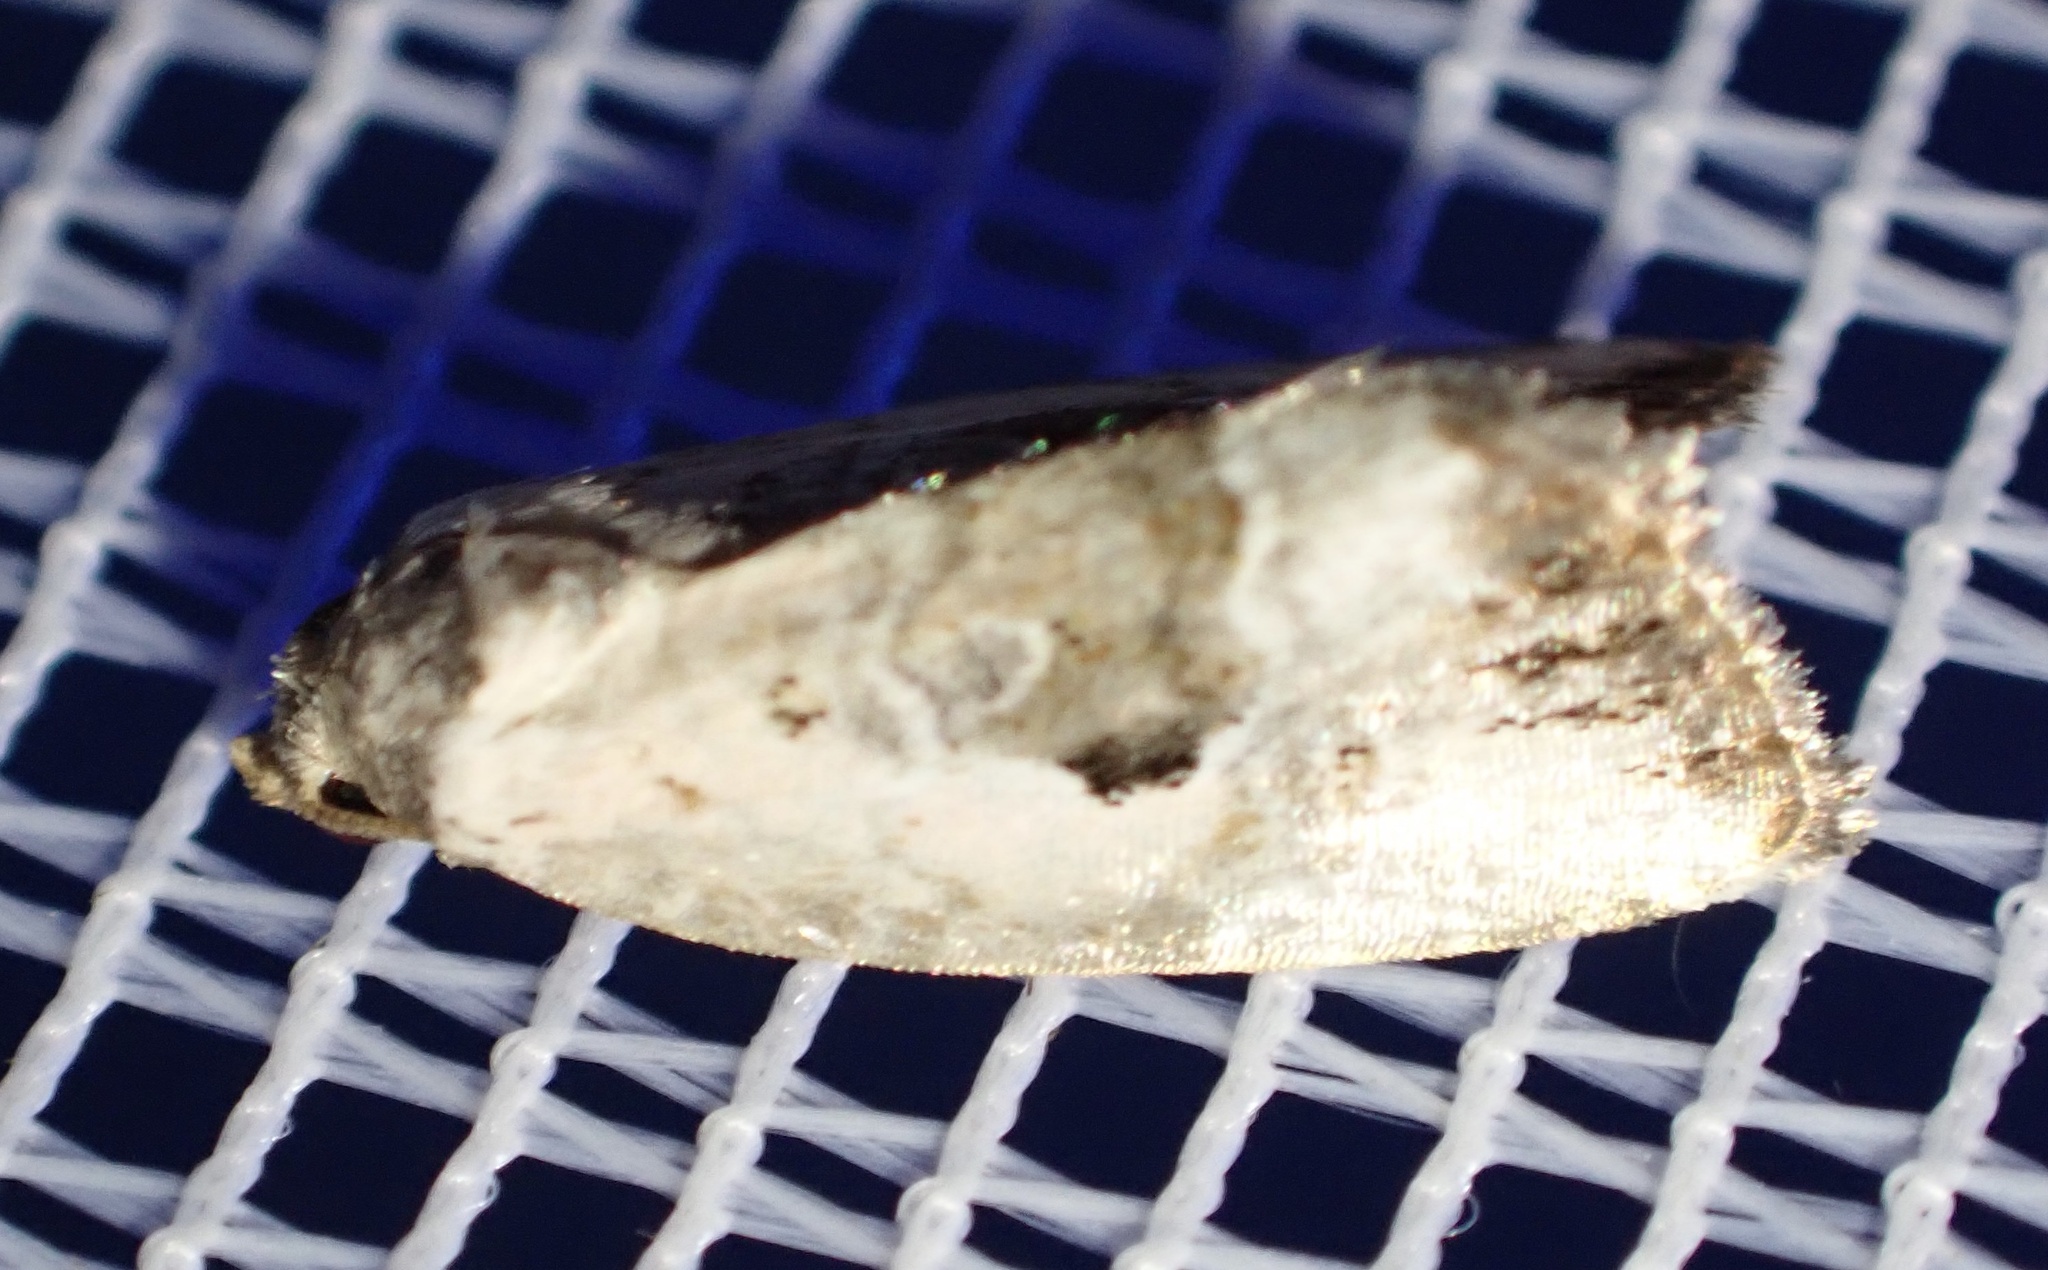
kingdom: Animalia
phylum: Arthropoda
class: Insecta
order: Lepidoptera
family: Noctuidae
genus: Elaphria
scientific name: Elaphria venustula
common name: Rosy marbled
